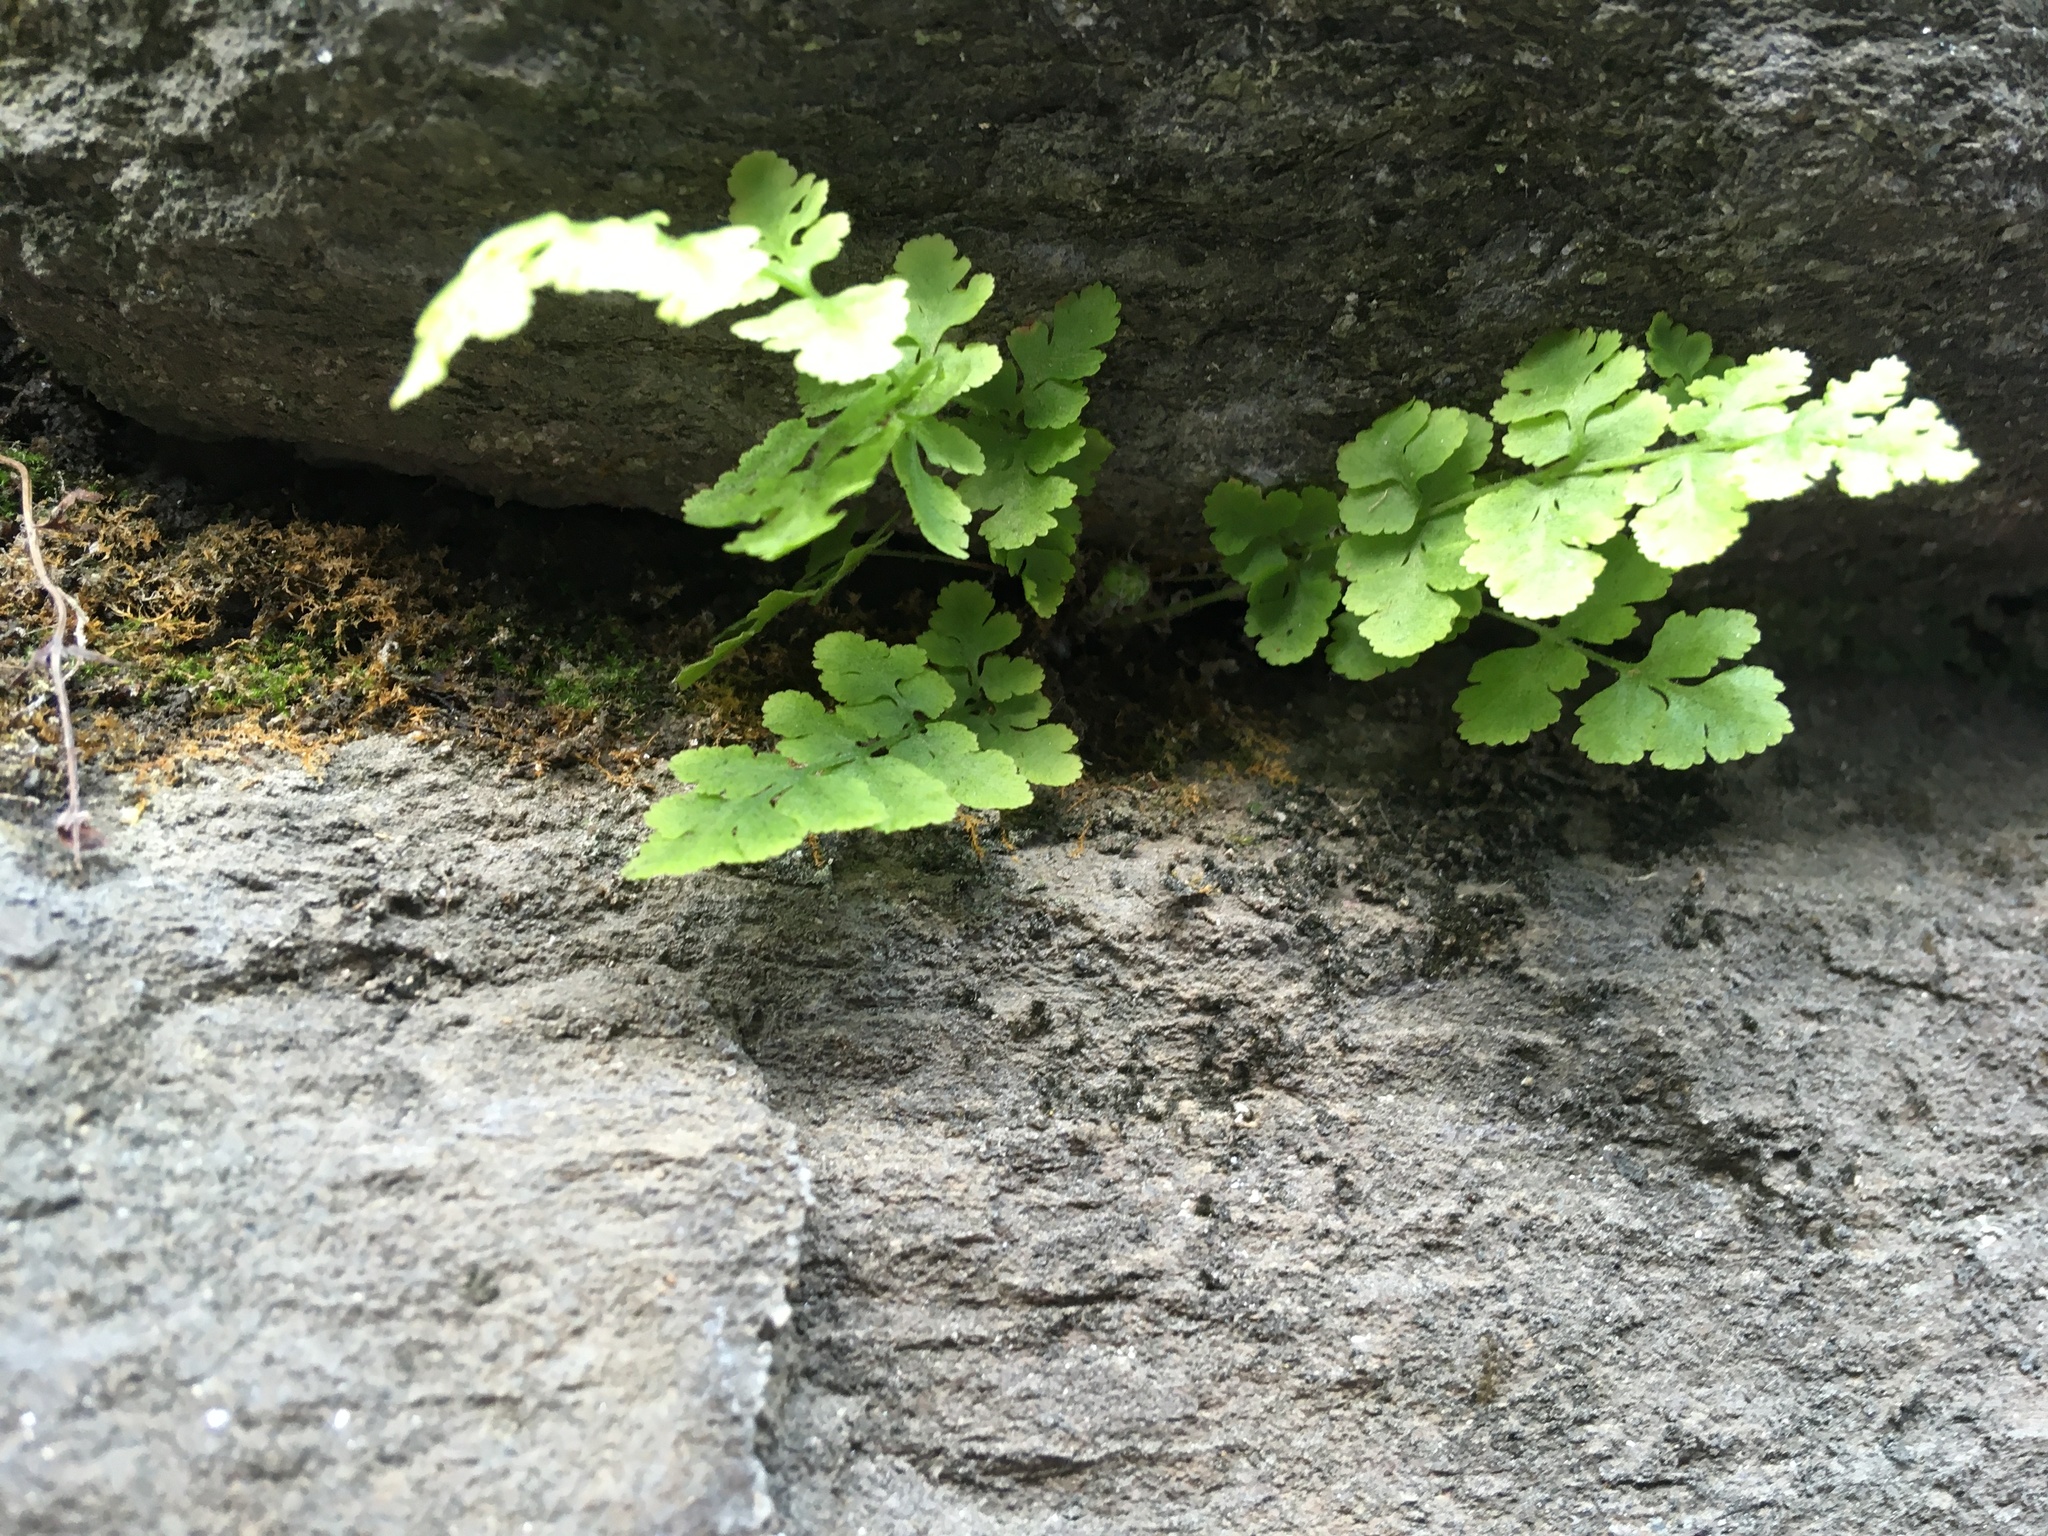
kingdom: Plantae
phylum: Tracheophyta
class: Polypodiopsida
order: Polypodiales
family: Woodsiaceae
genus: Physematium
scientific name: Physematium obtusum
